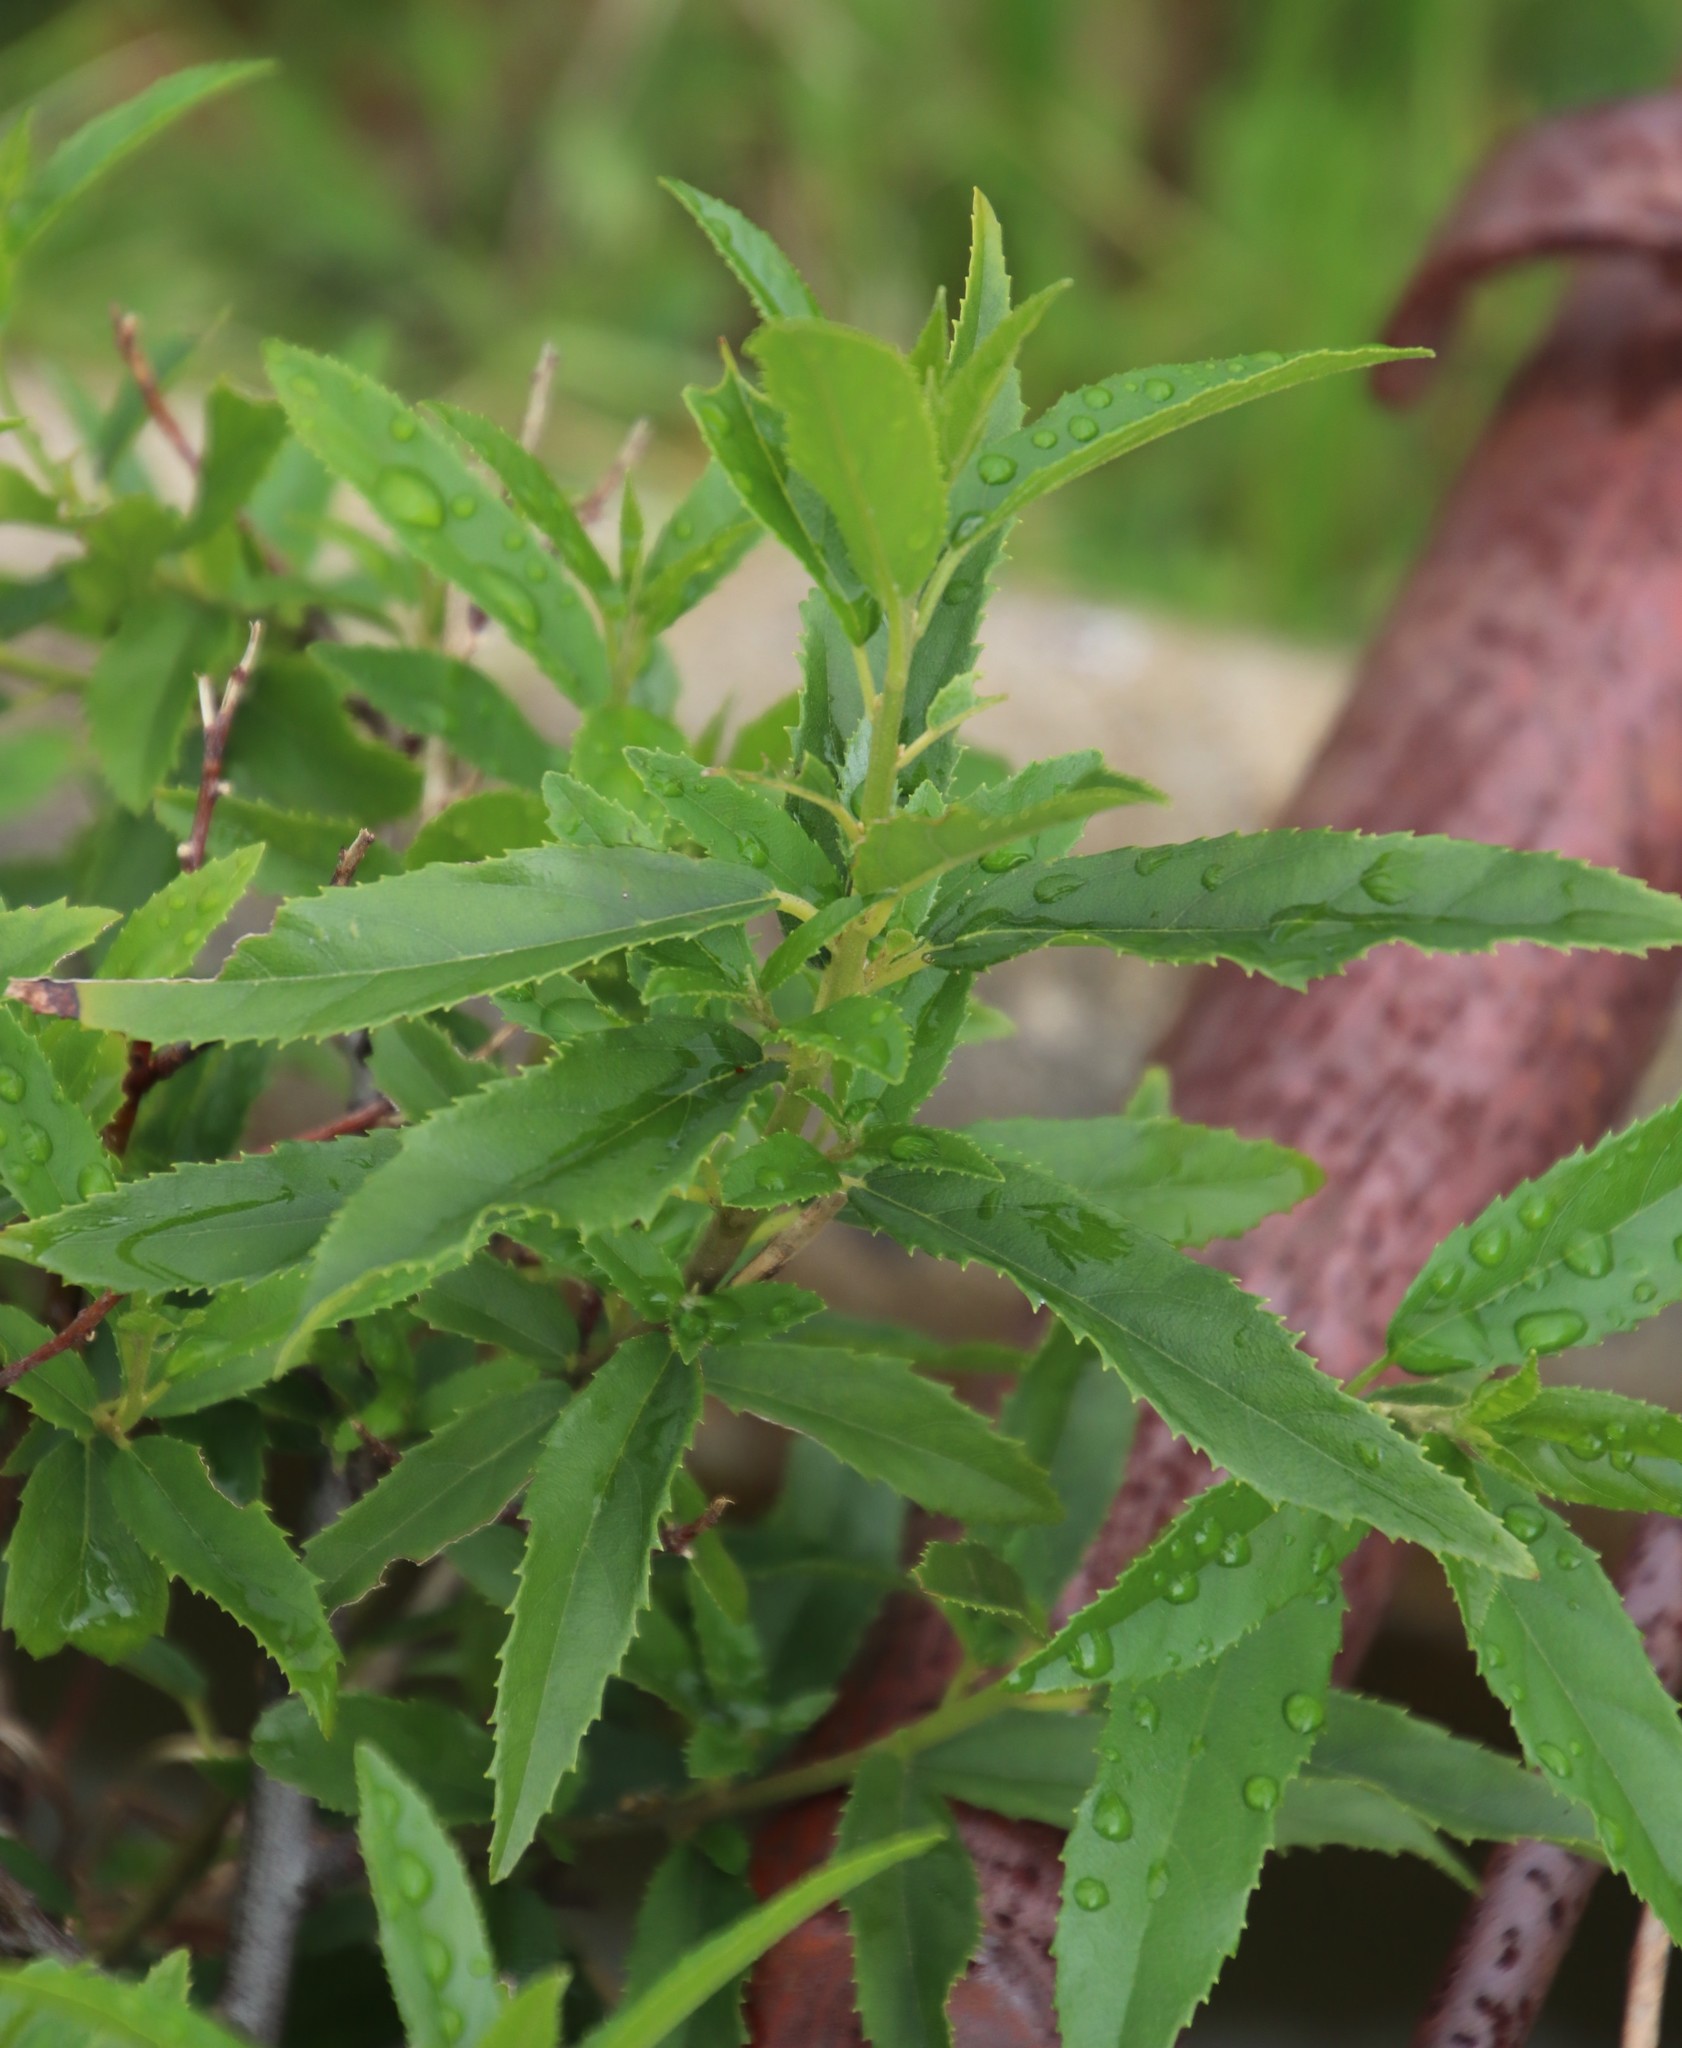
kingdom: Plantae
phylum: Tracheophyta
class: Magnoliopsida
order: Malpighiales
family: Achariaceae
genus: Kiggelaria
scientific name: Kiggelaria africana
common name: Wild peach
